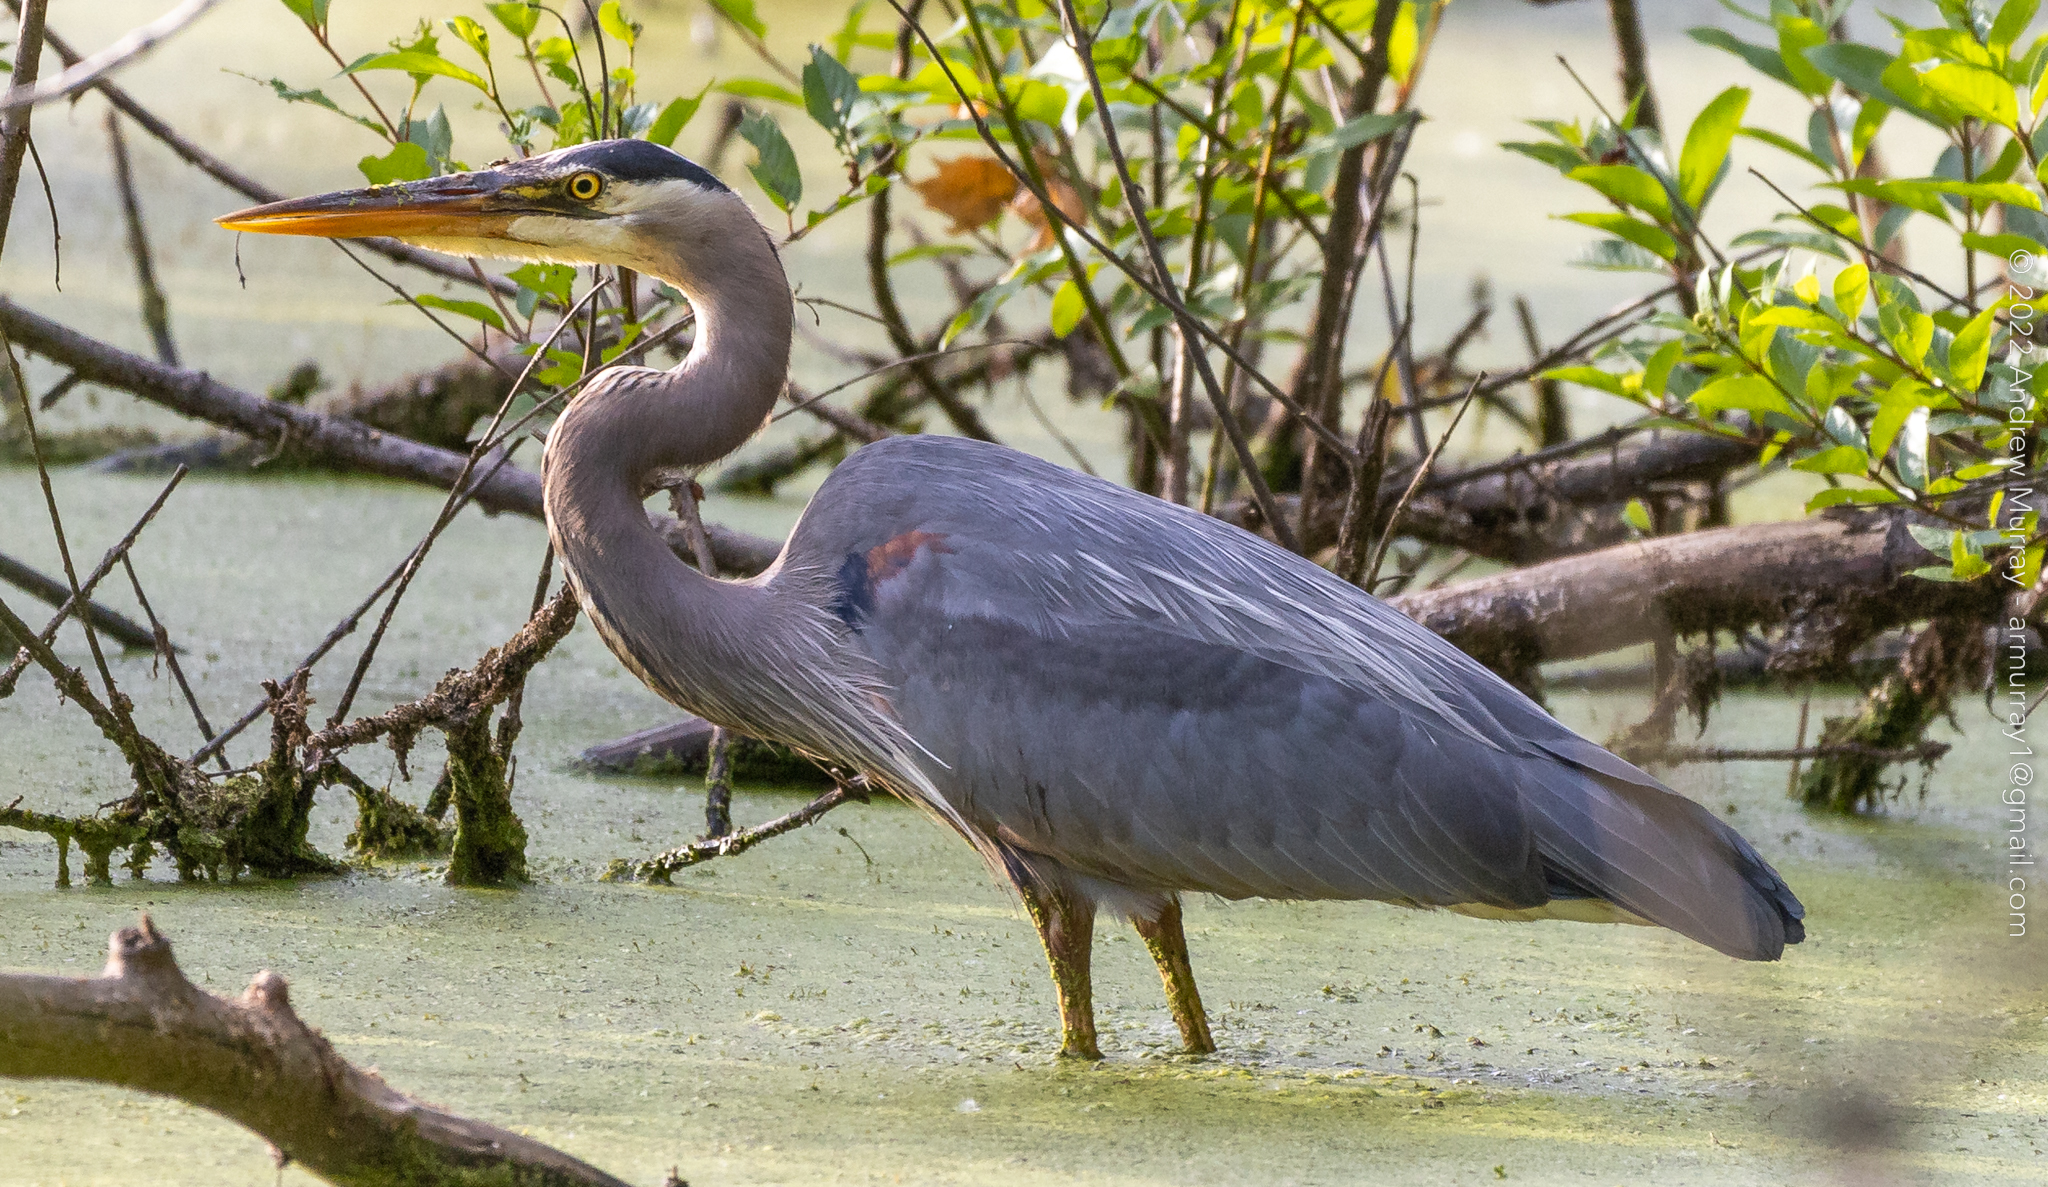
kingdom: Animalia
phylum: Chordata
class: Aves
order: Pelecaniformes
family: Ardeidae
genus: Ardea
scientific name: Ardea herodias
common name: Great blue heron
